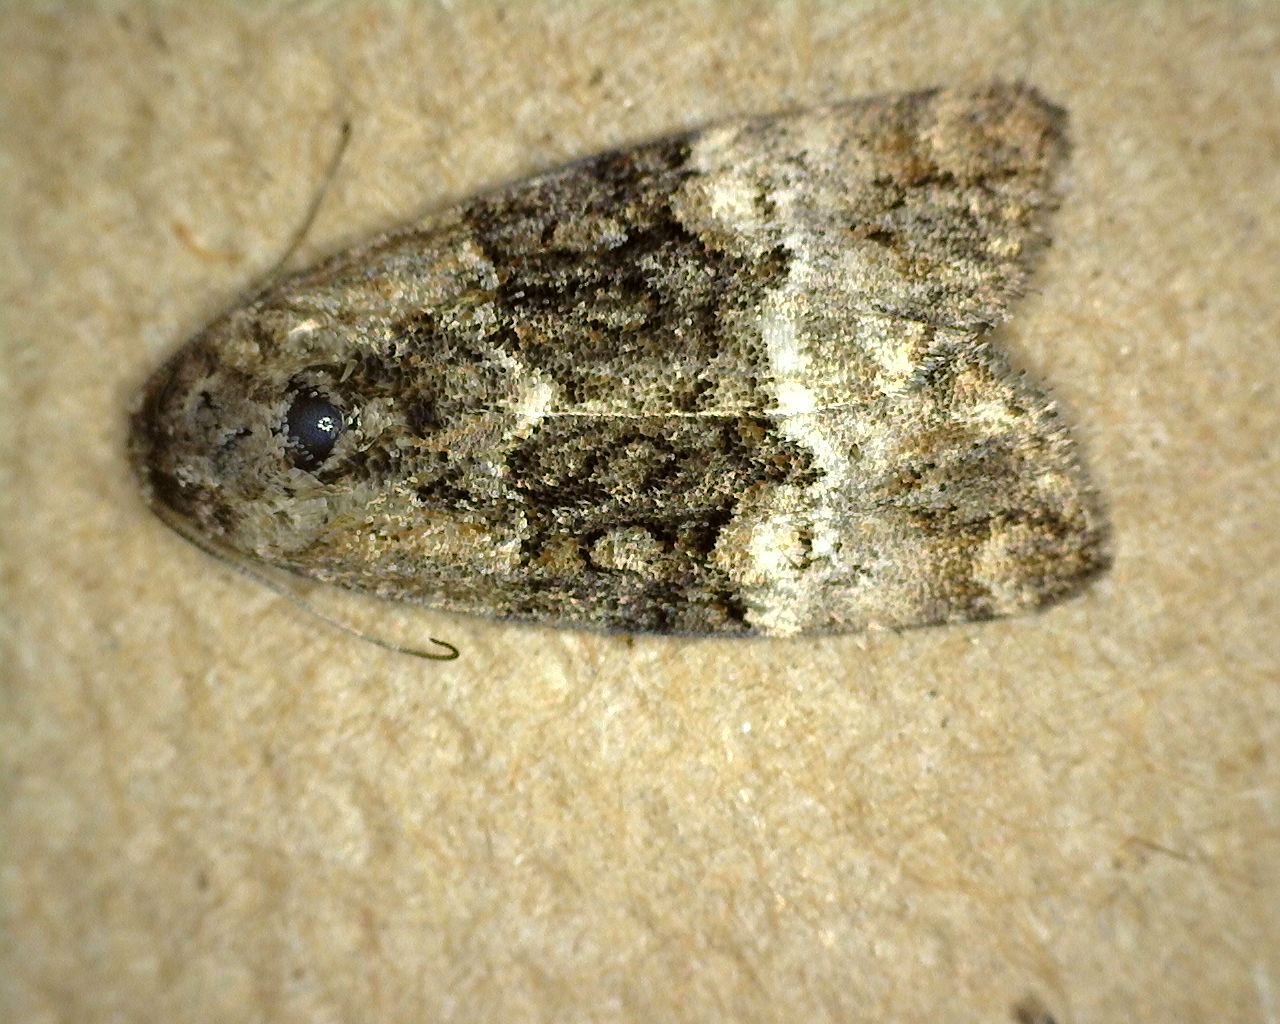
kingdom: Animalia
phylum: Arthropoda
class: Insecta
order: Lepidoptera
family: Noctuidae
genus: Elaphria
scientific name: Elaphria georgei
